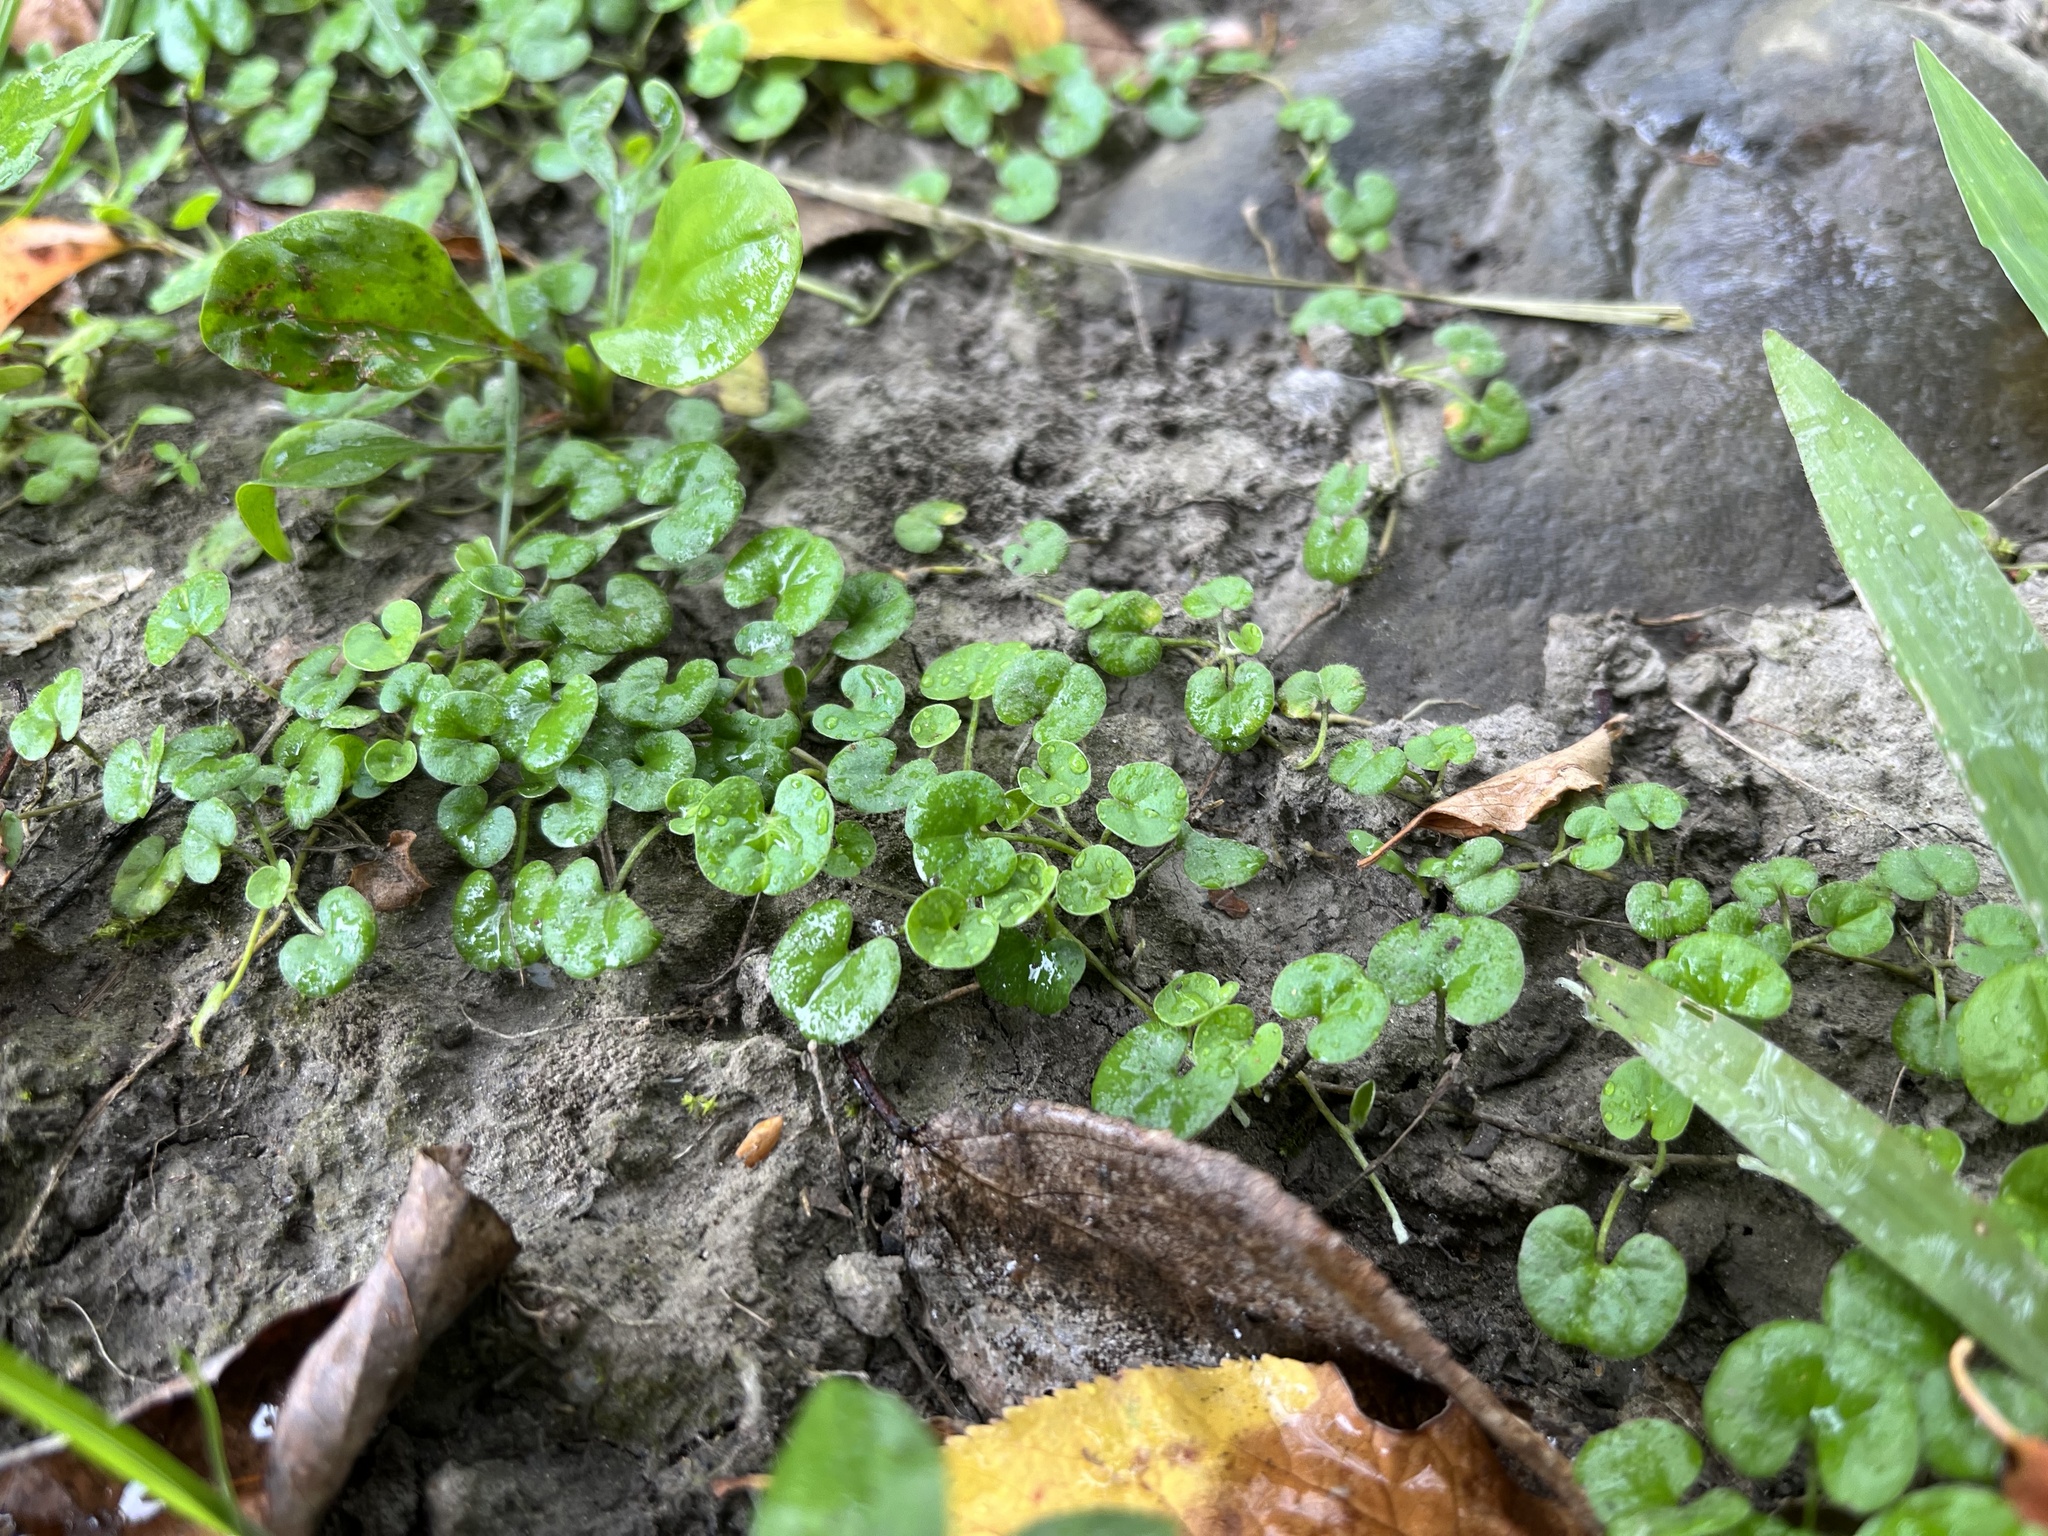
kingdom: Plantae
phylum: Tracheophyta
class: Magnoliopsida
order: Solanales
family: Convolvulaceae
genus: Dichondra
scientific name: Dichondra micrantha
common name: Kidneyweed
